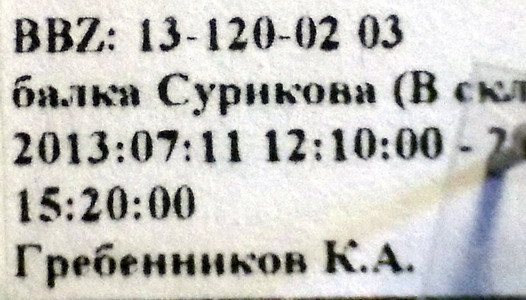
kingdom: Animalia
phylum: Arthropoda
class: Insecta
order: Hemiptera
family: Pentatomidae
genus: Leprosoma
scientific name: Leprosoma inconspicuum
